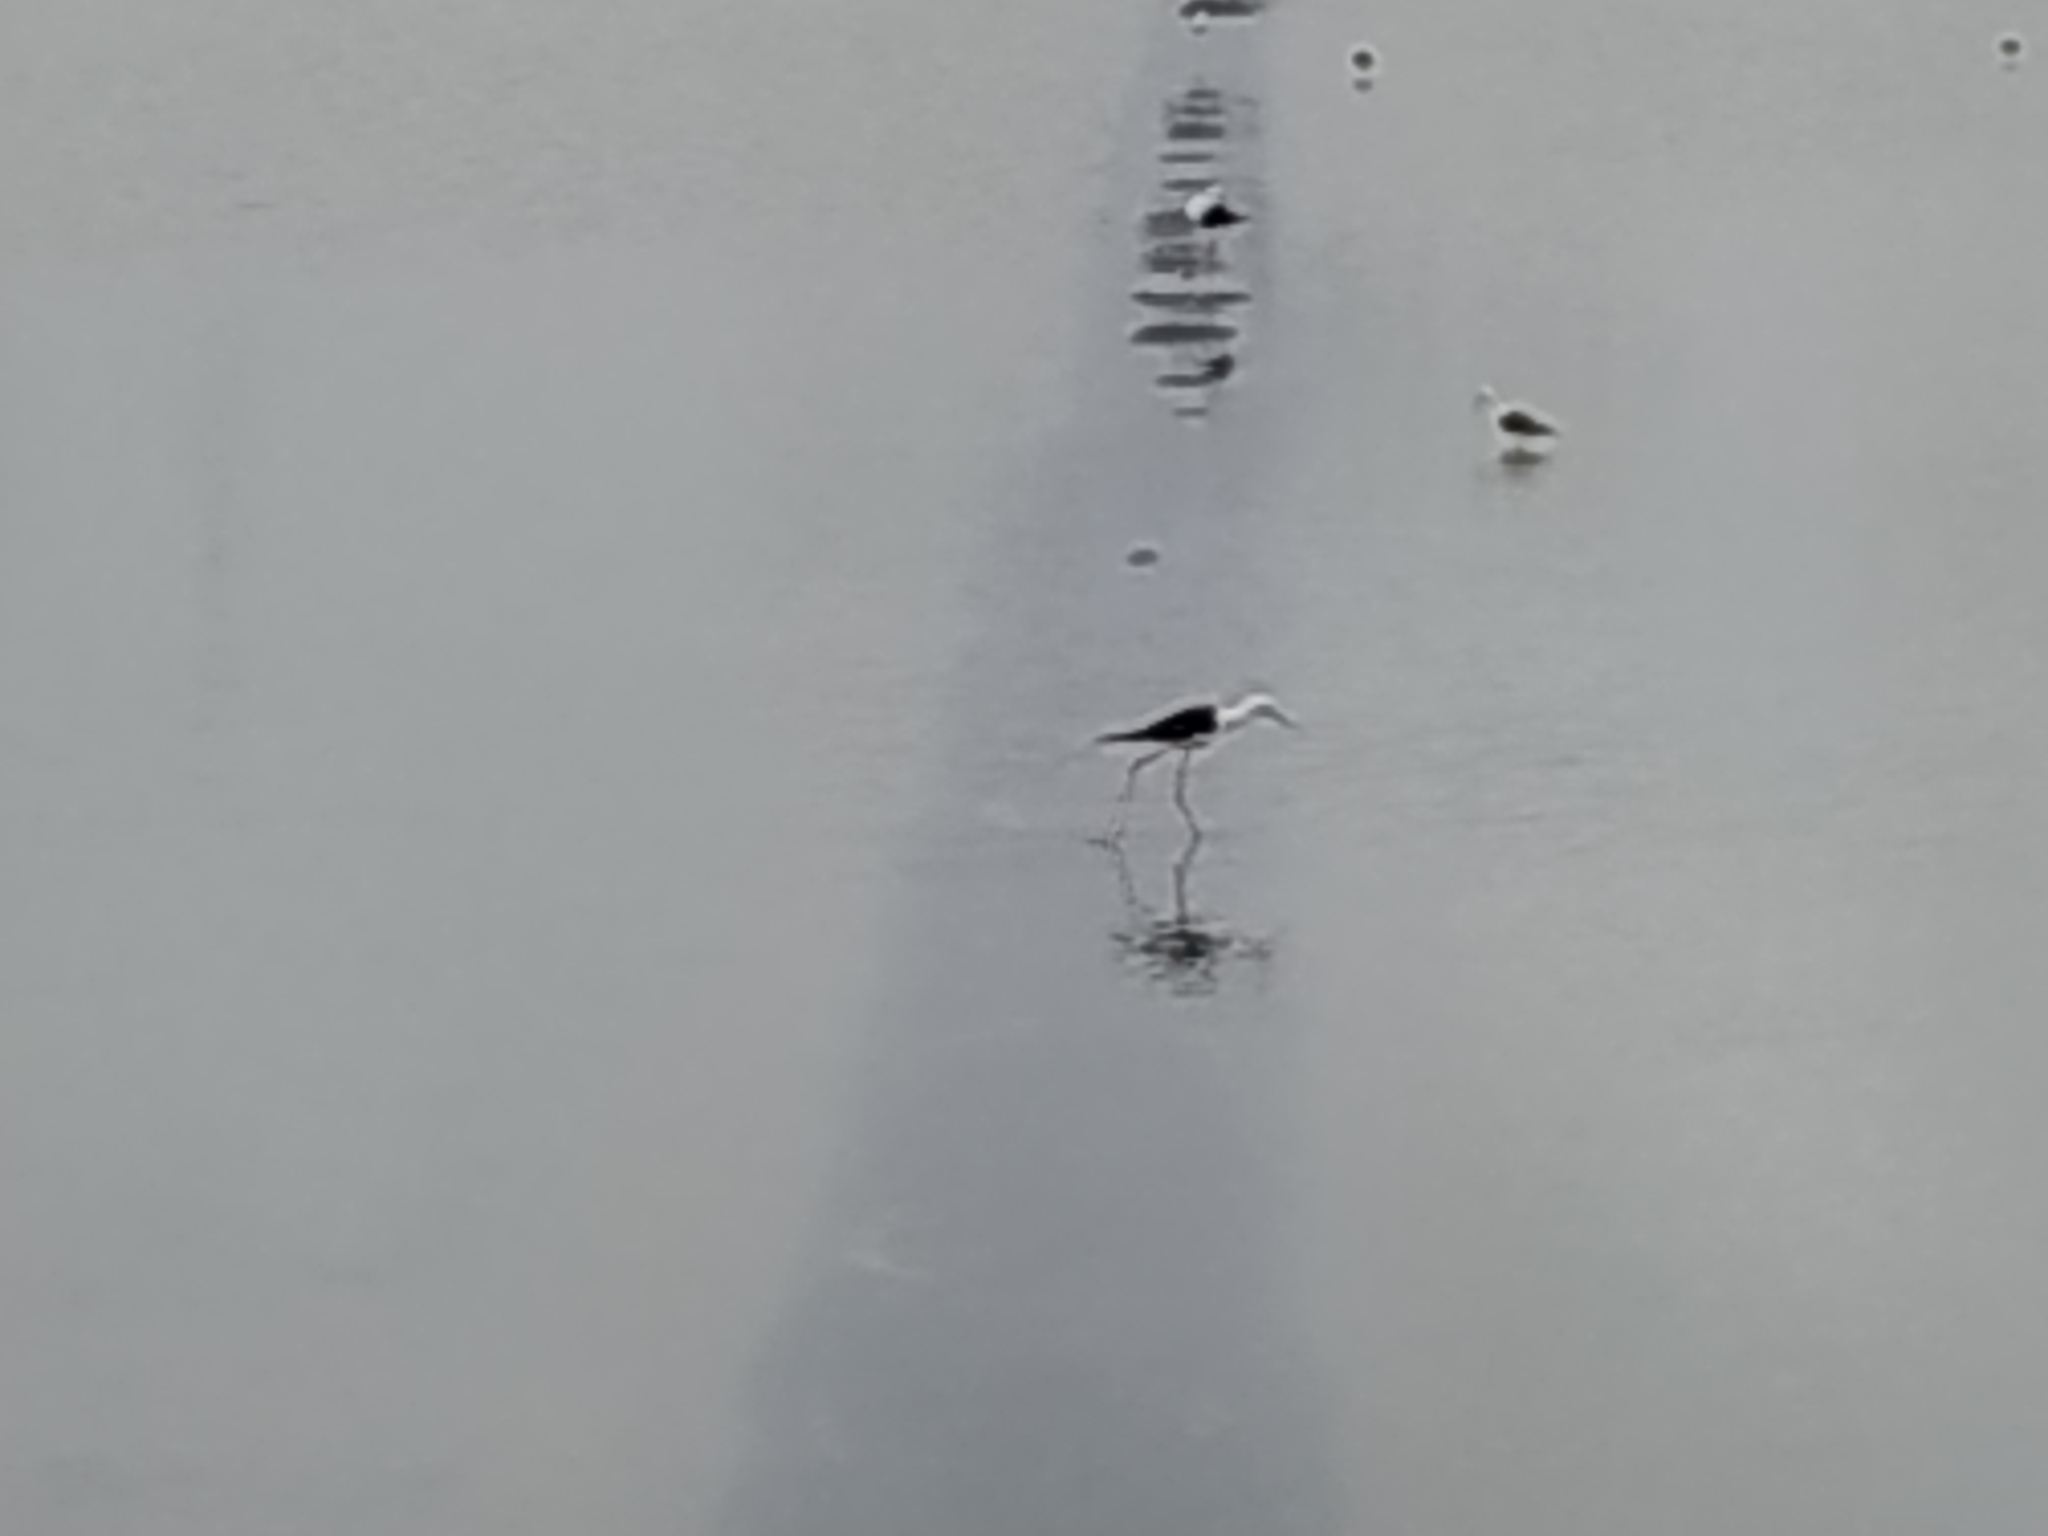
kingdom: Animalia
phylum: Chordata
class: Aves
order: Charadriiformes
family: Recurvirostridae
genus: Himantopus
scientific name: Himantopus himantopus
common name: Black-winged stilt
